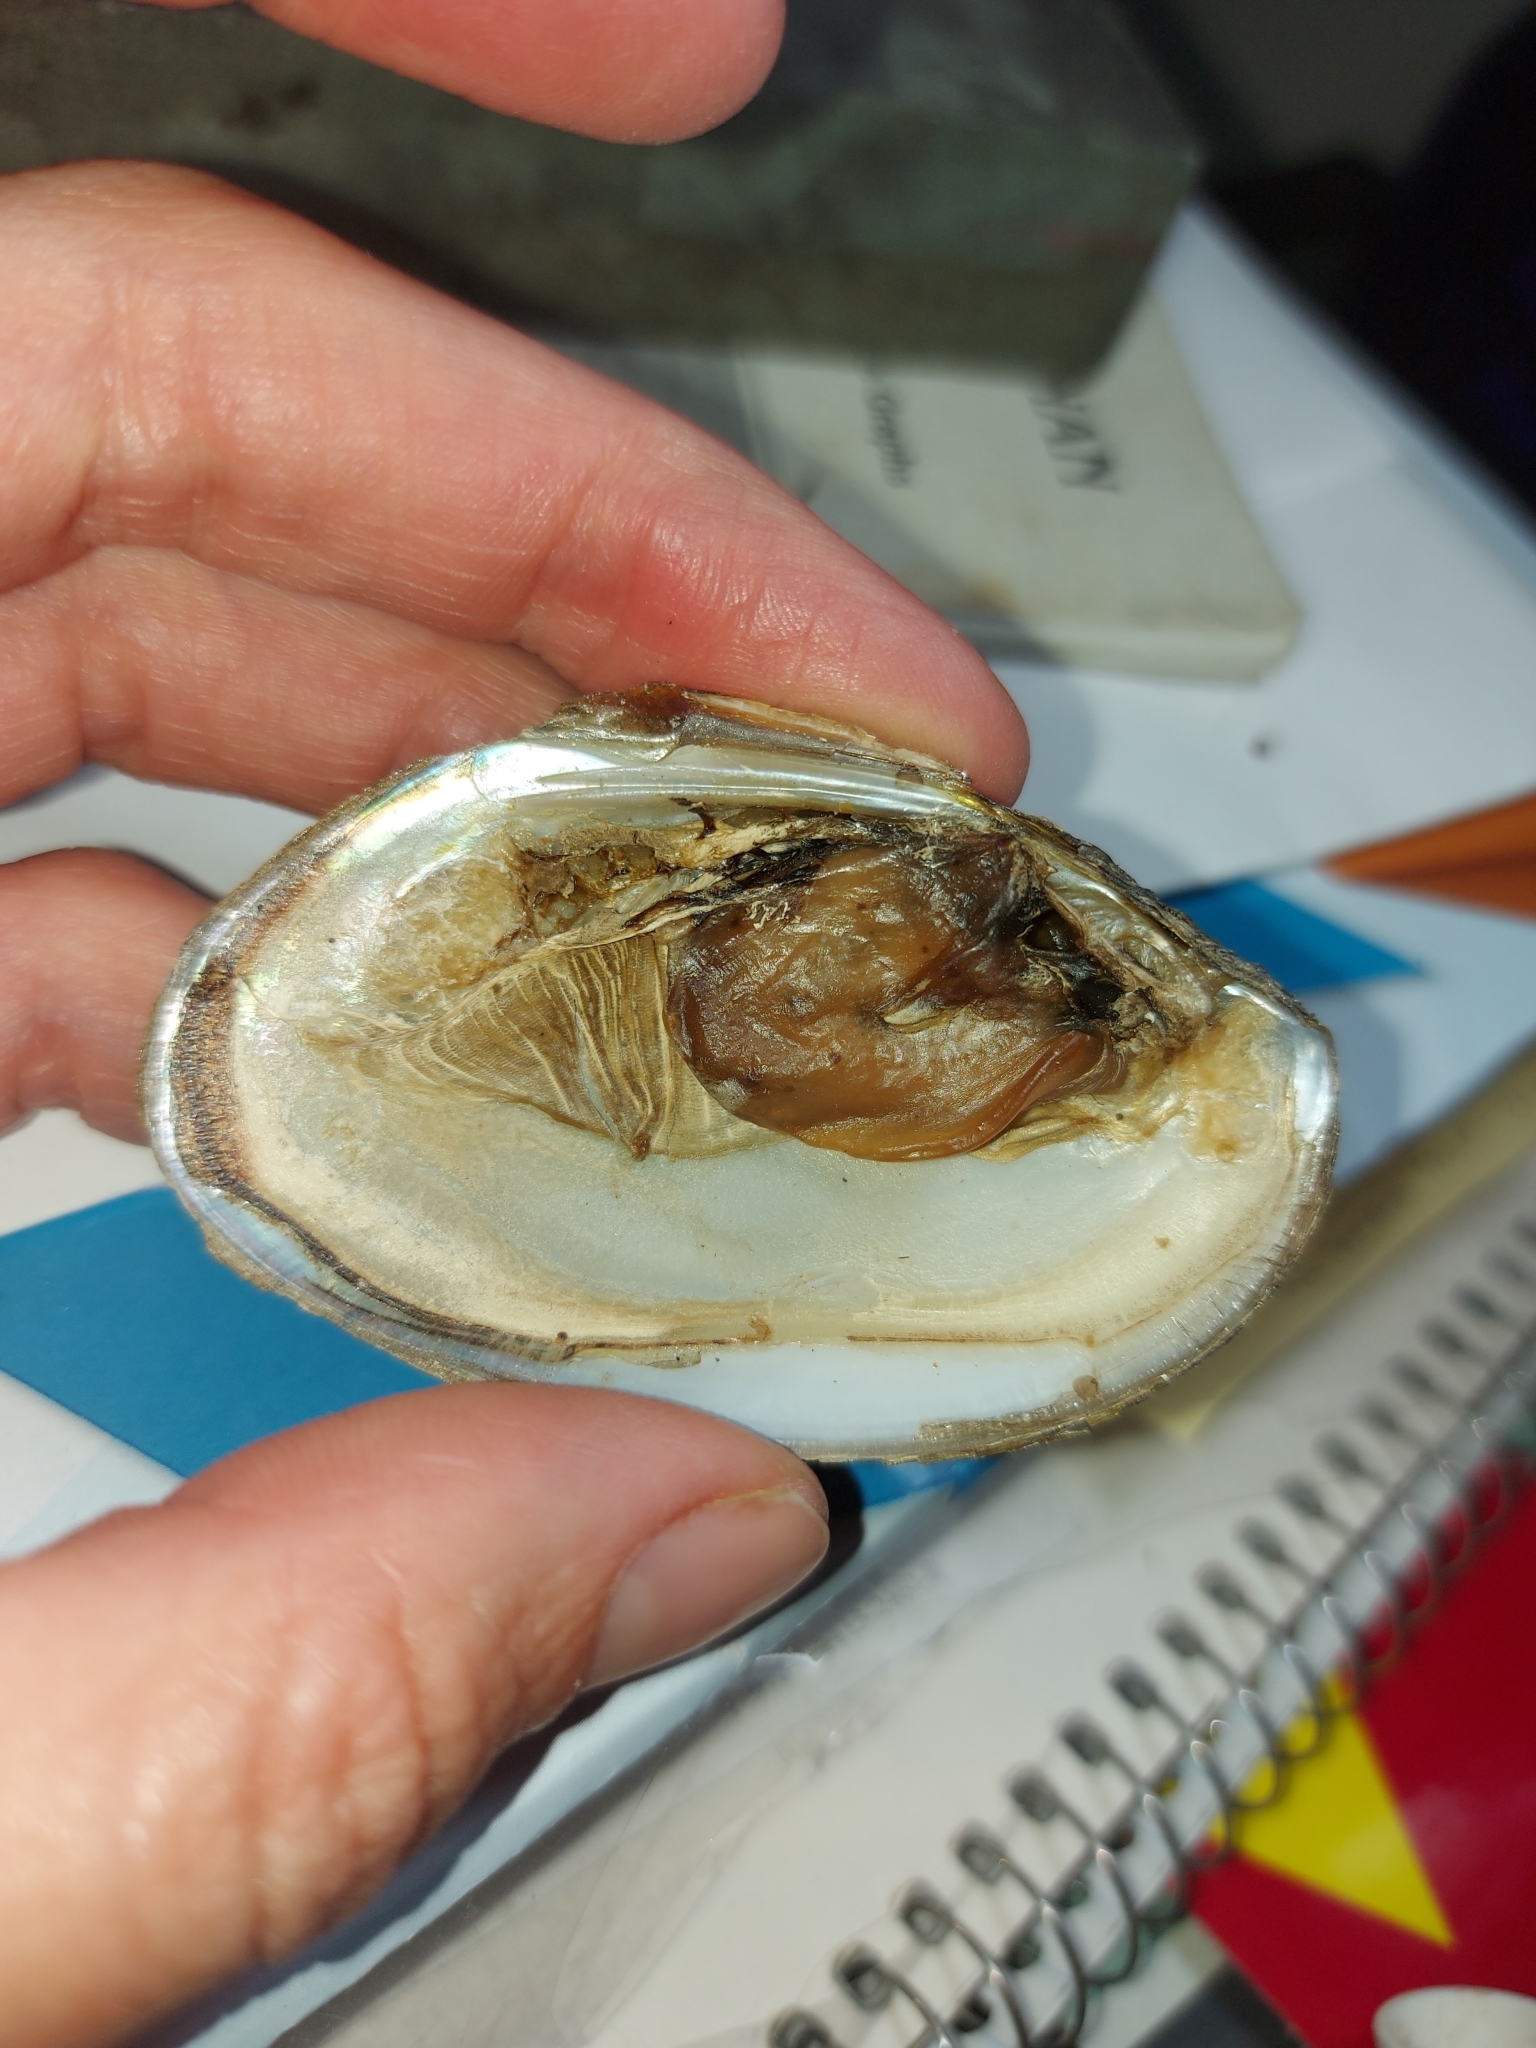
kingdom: Animalia
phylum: Mollusca
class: Bivalvia
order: Unionida
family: Unionidae
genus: Lampsilis
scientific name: Lampsilis radiata
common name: Eastern lampmussel
